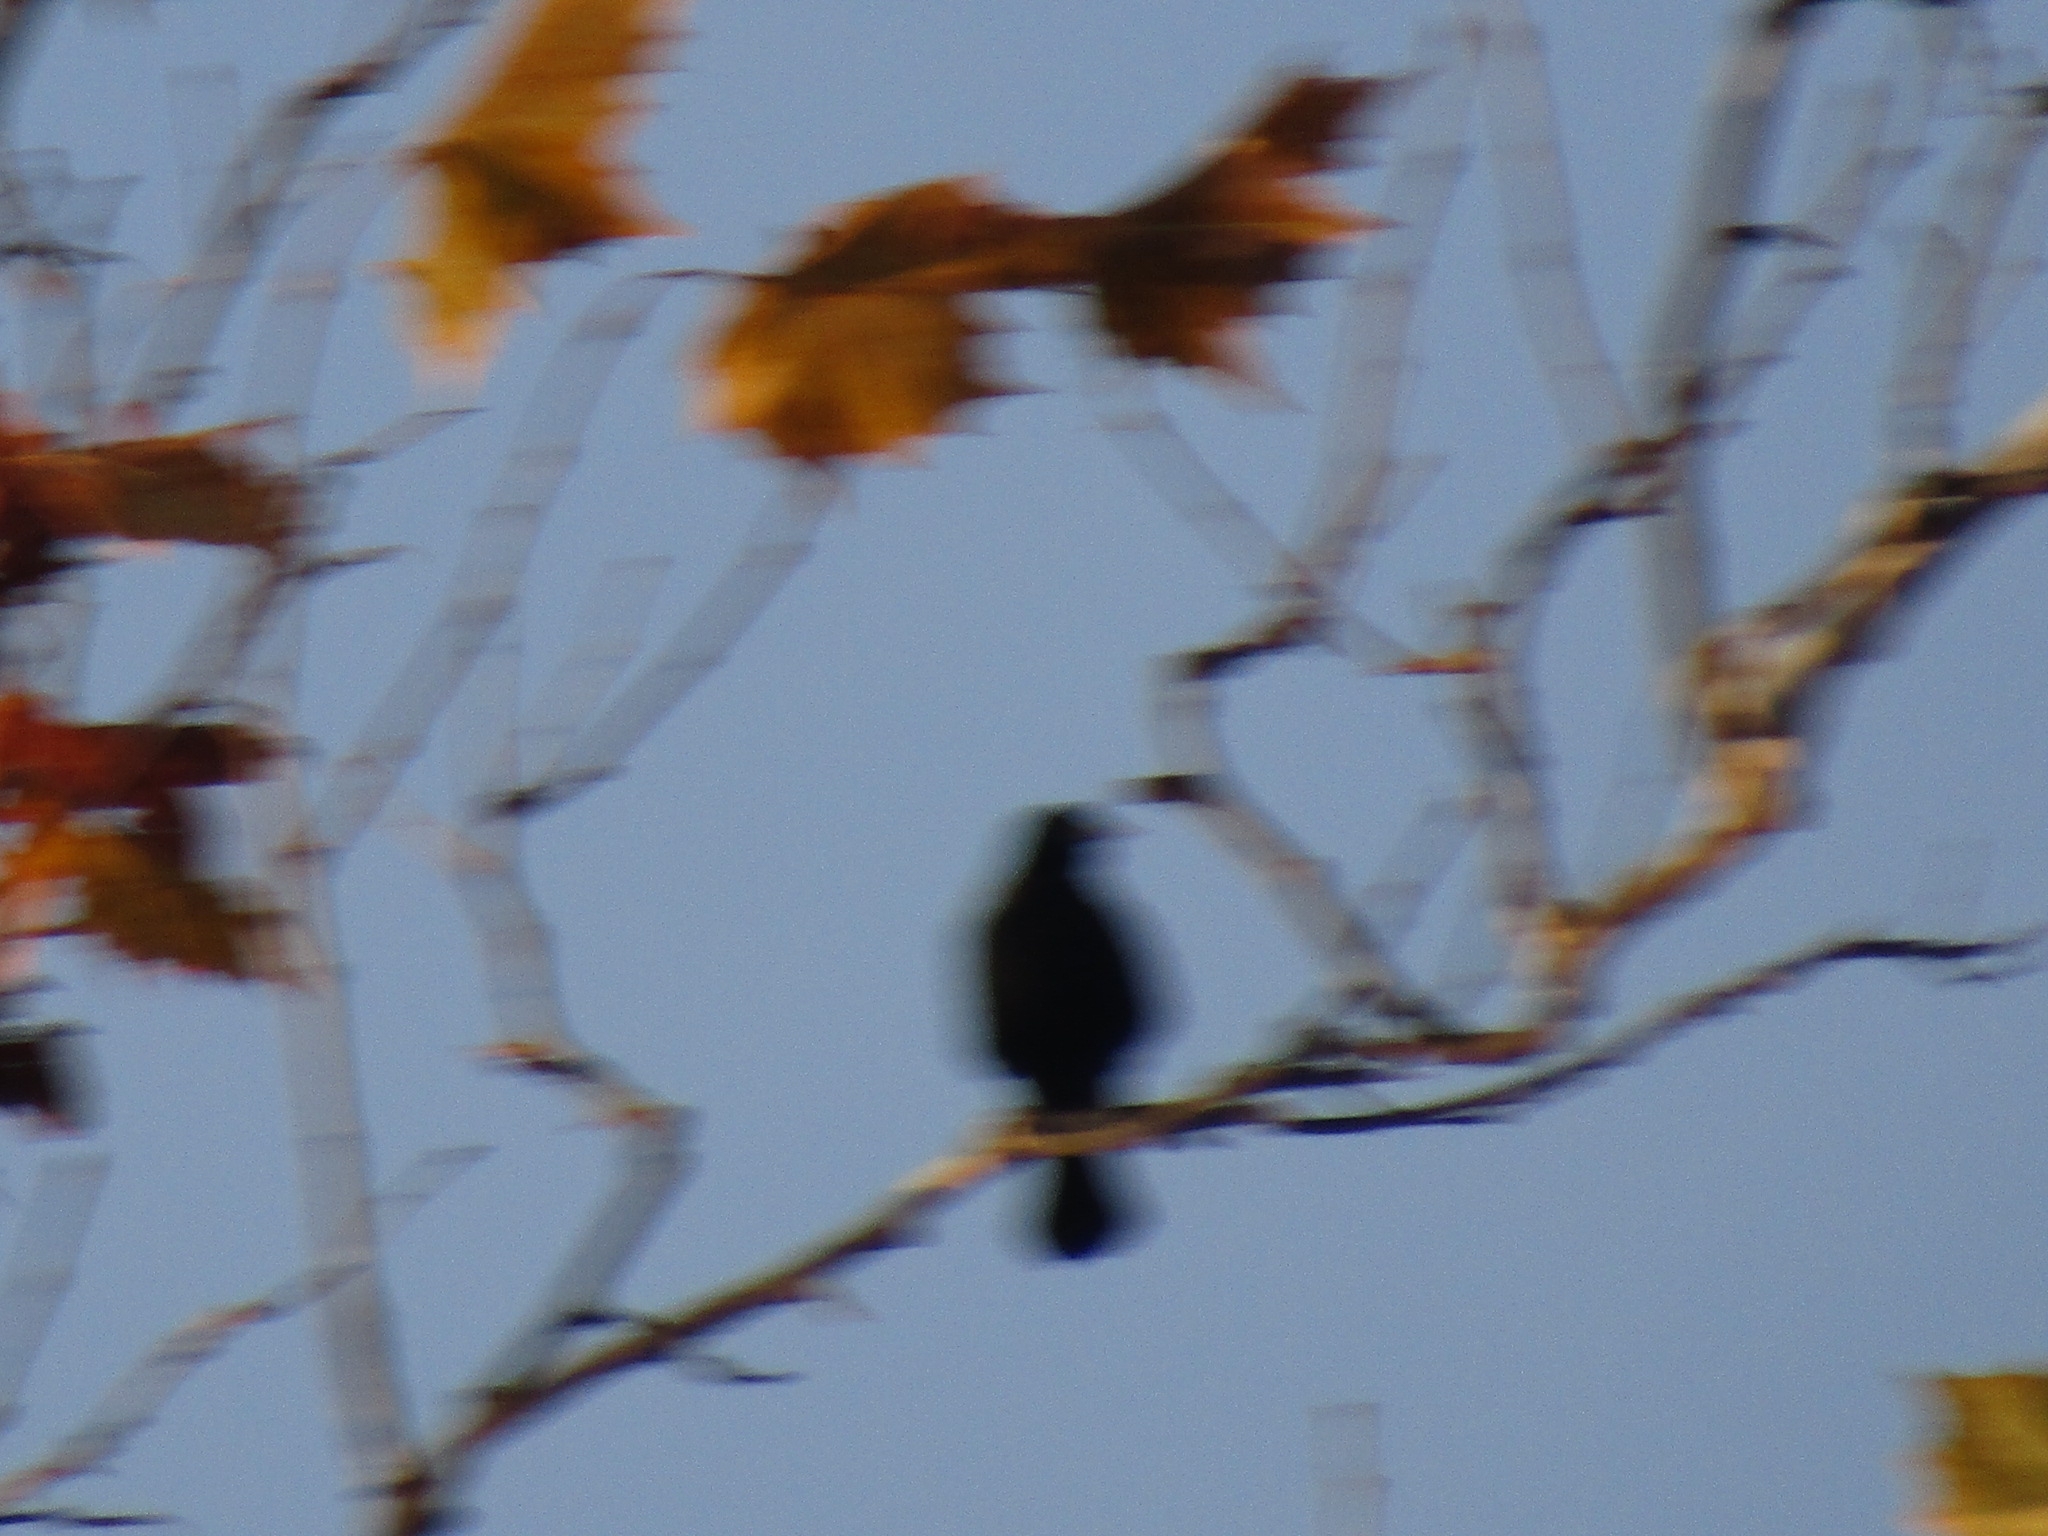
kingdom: Animalia
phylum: Chordata
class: Aves
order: Passeriformes
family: Icteridae
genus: Agelaius
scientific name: Agelaius phoeniceus
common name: Red-winged blackbird
